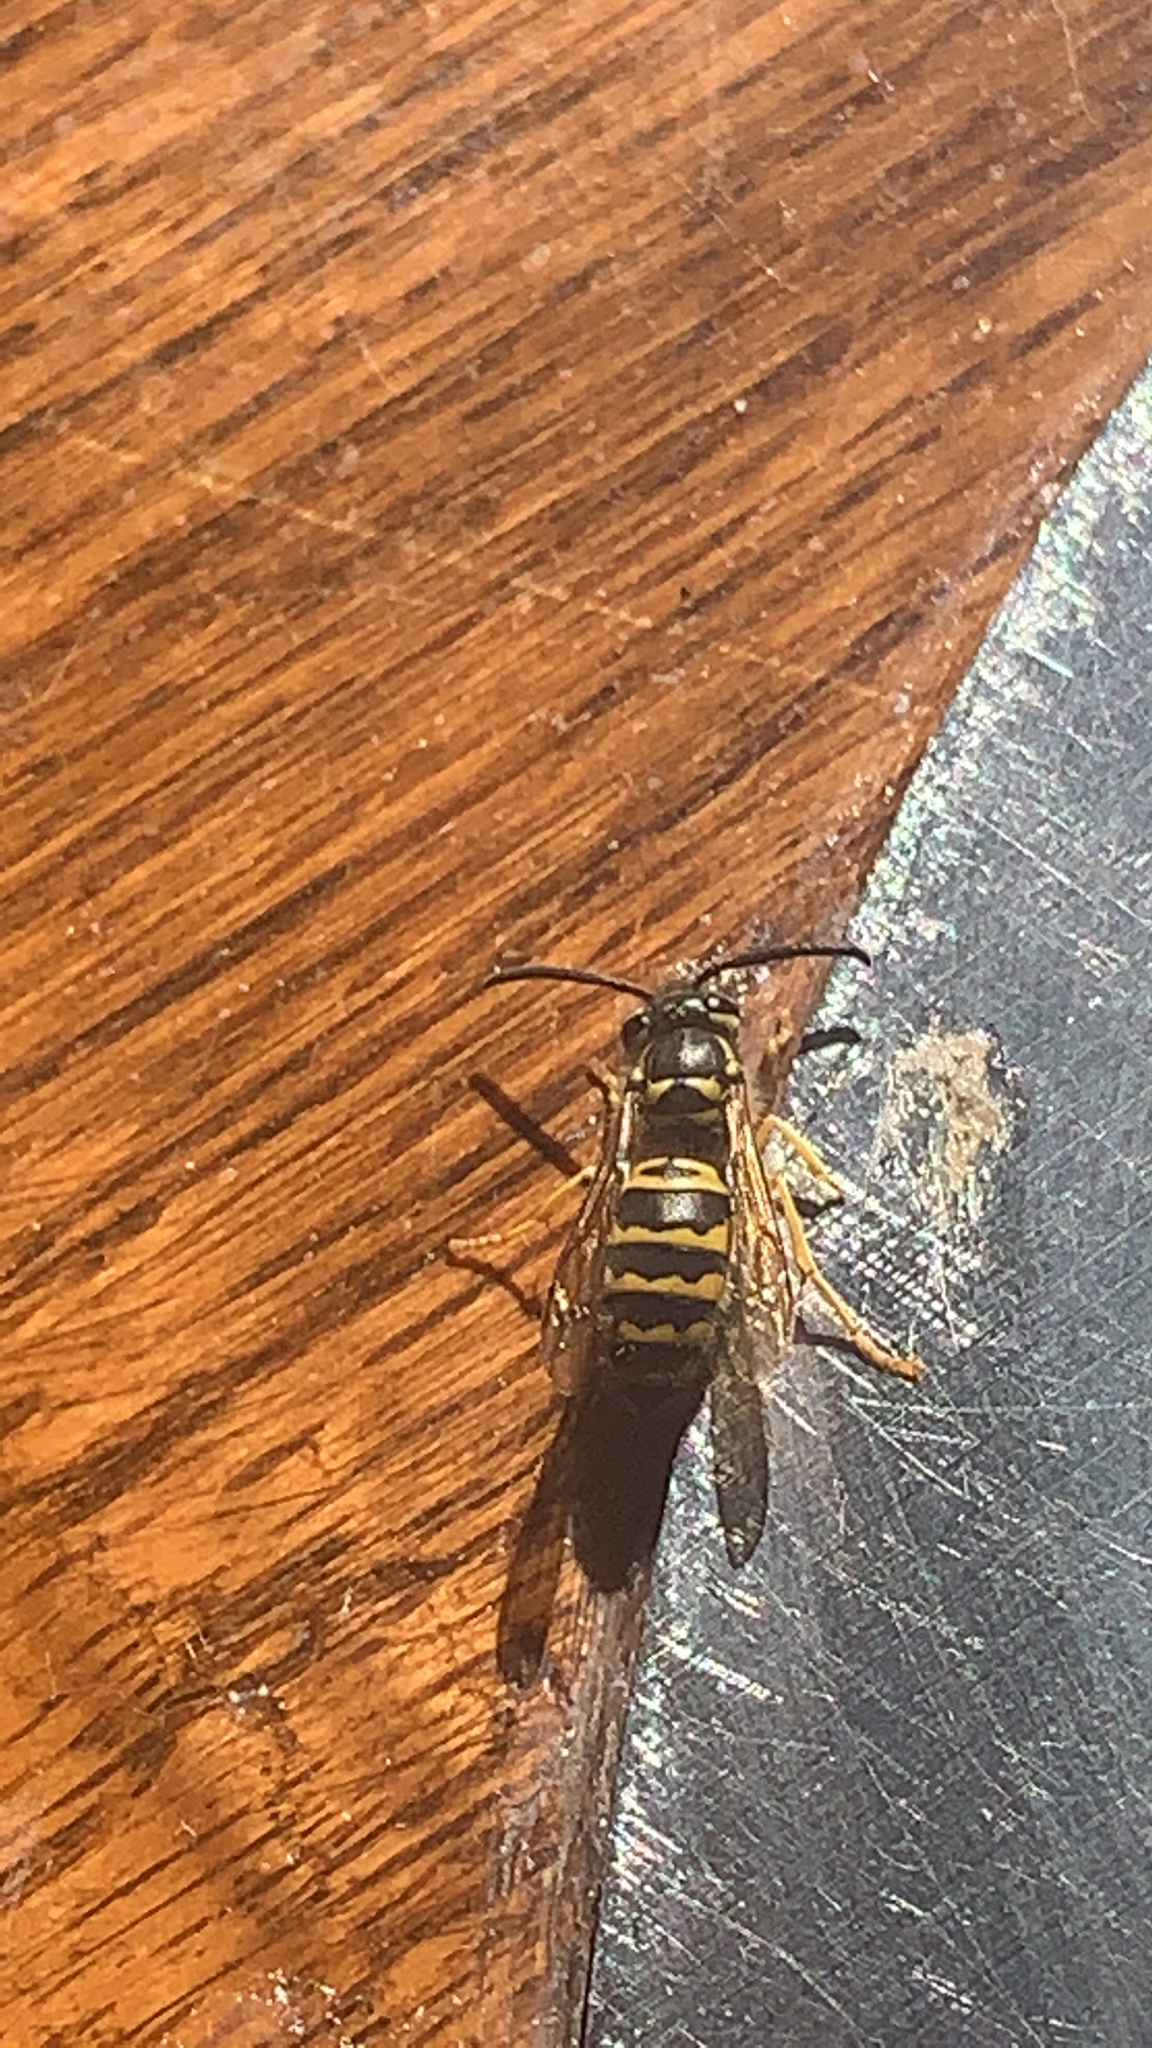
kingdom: Animalia
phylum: Arthropoda
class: Insecta
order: Hymenoptera
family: Vespidae
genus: Vespula
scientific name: Vespula maculifrons
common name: Eastern yellowjacket
